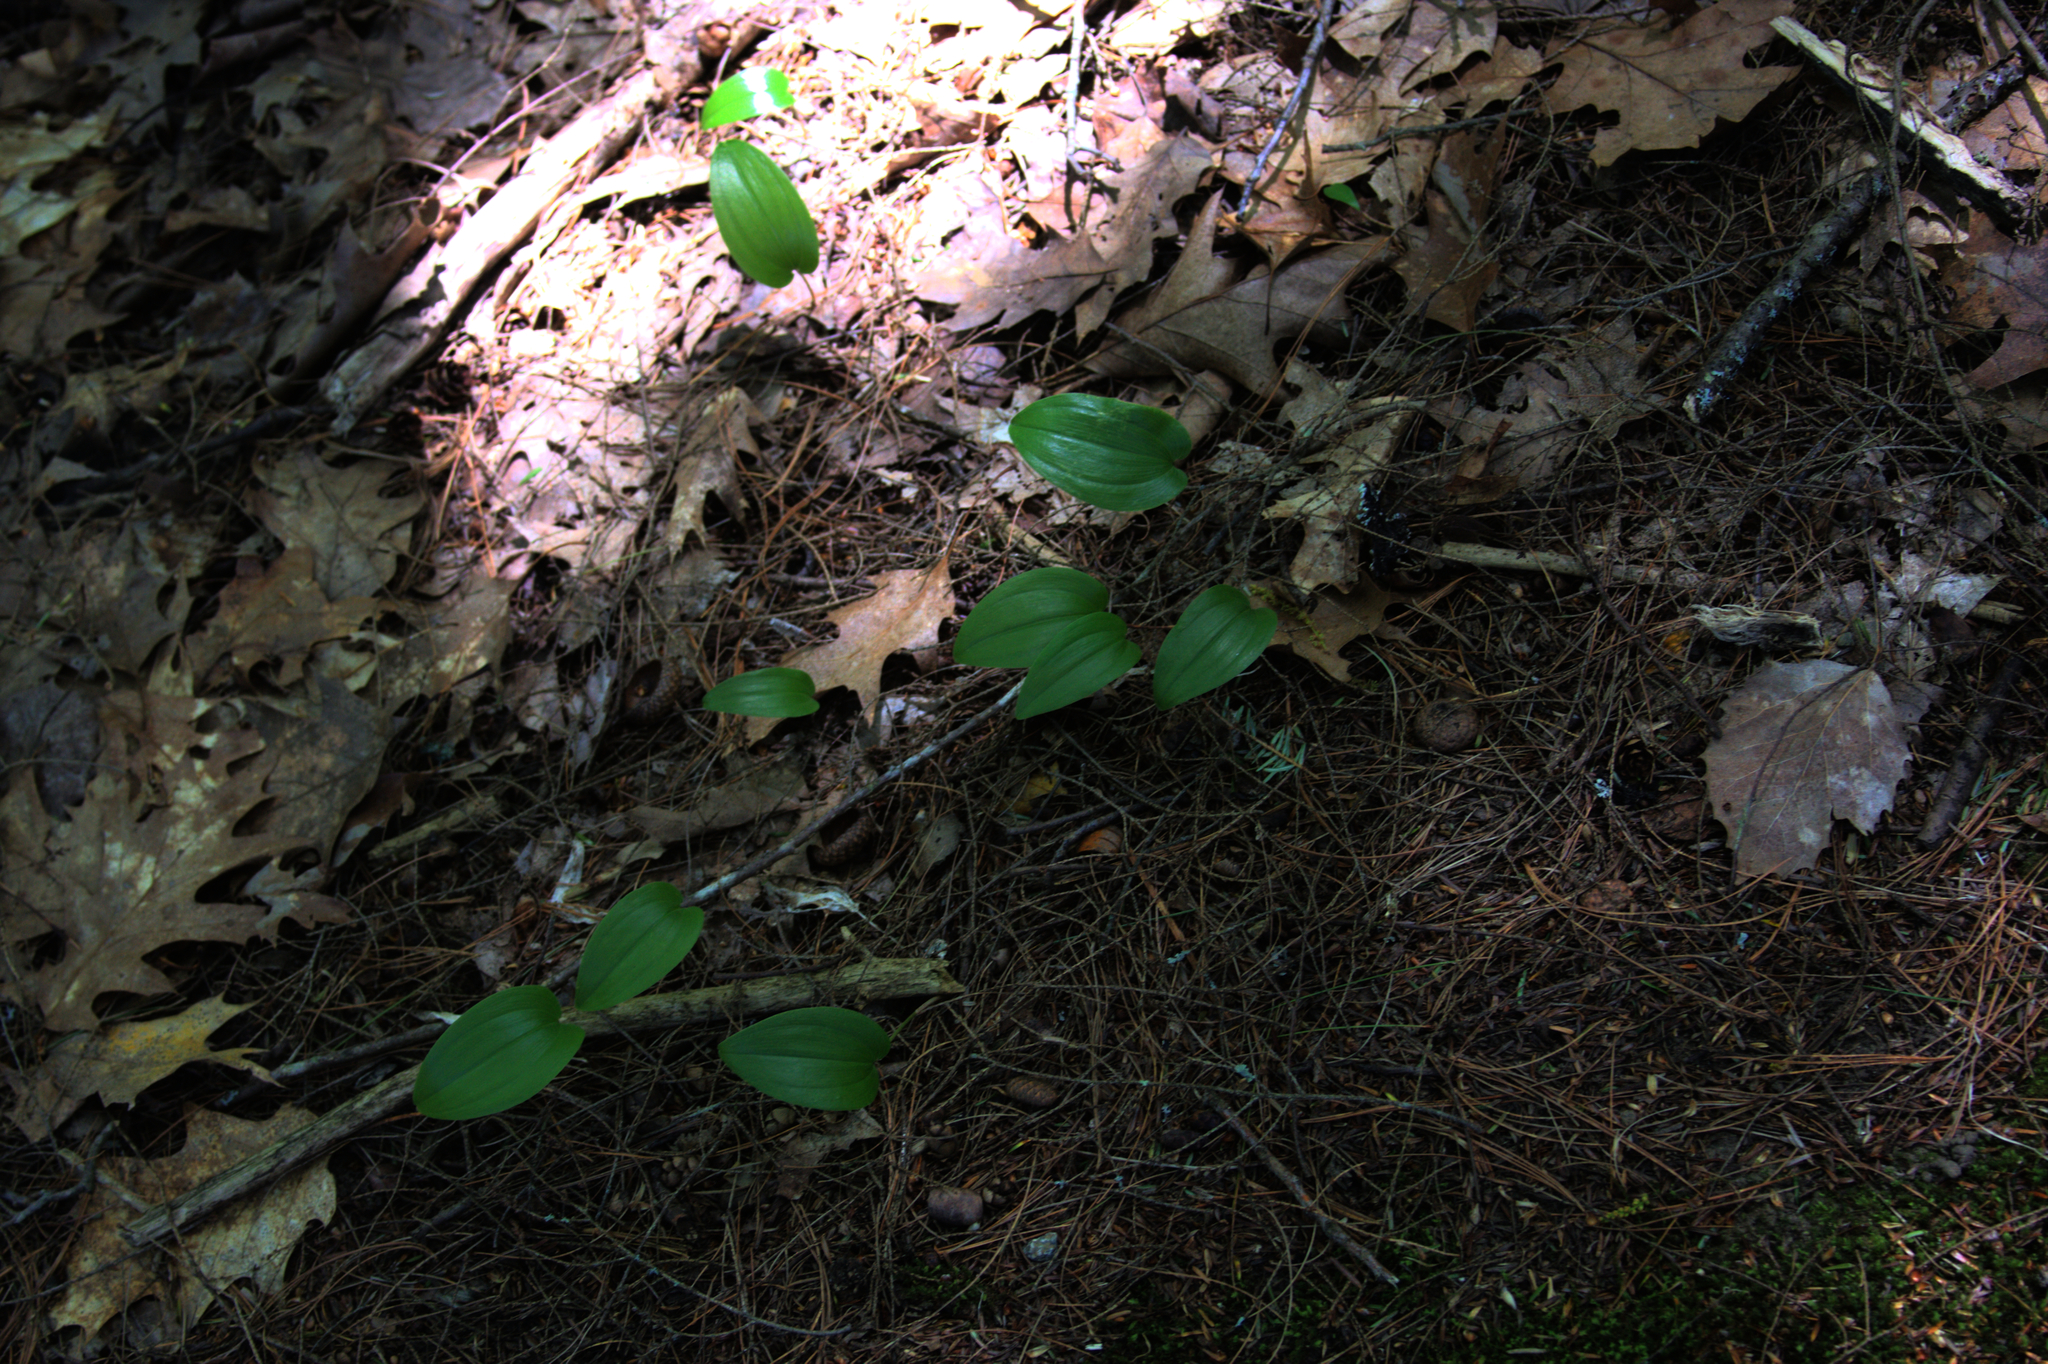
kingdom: Plantae
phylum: Tracheophyta
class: Liliopsida
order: Asparagales
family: Asparagaceae
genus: Maianthemum
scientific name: Maianthemum canadense
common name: False lily-of-the-valley
